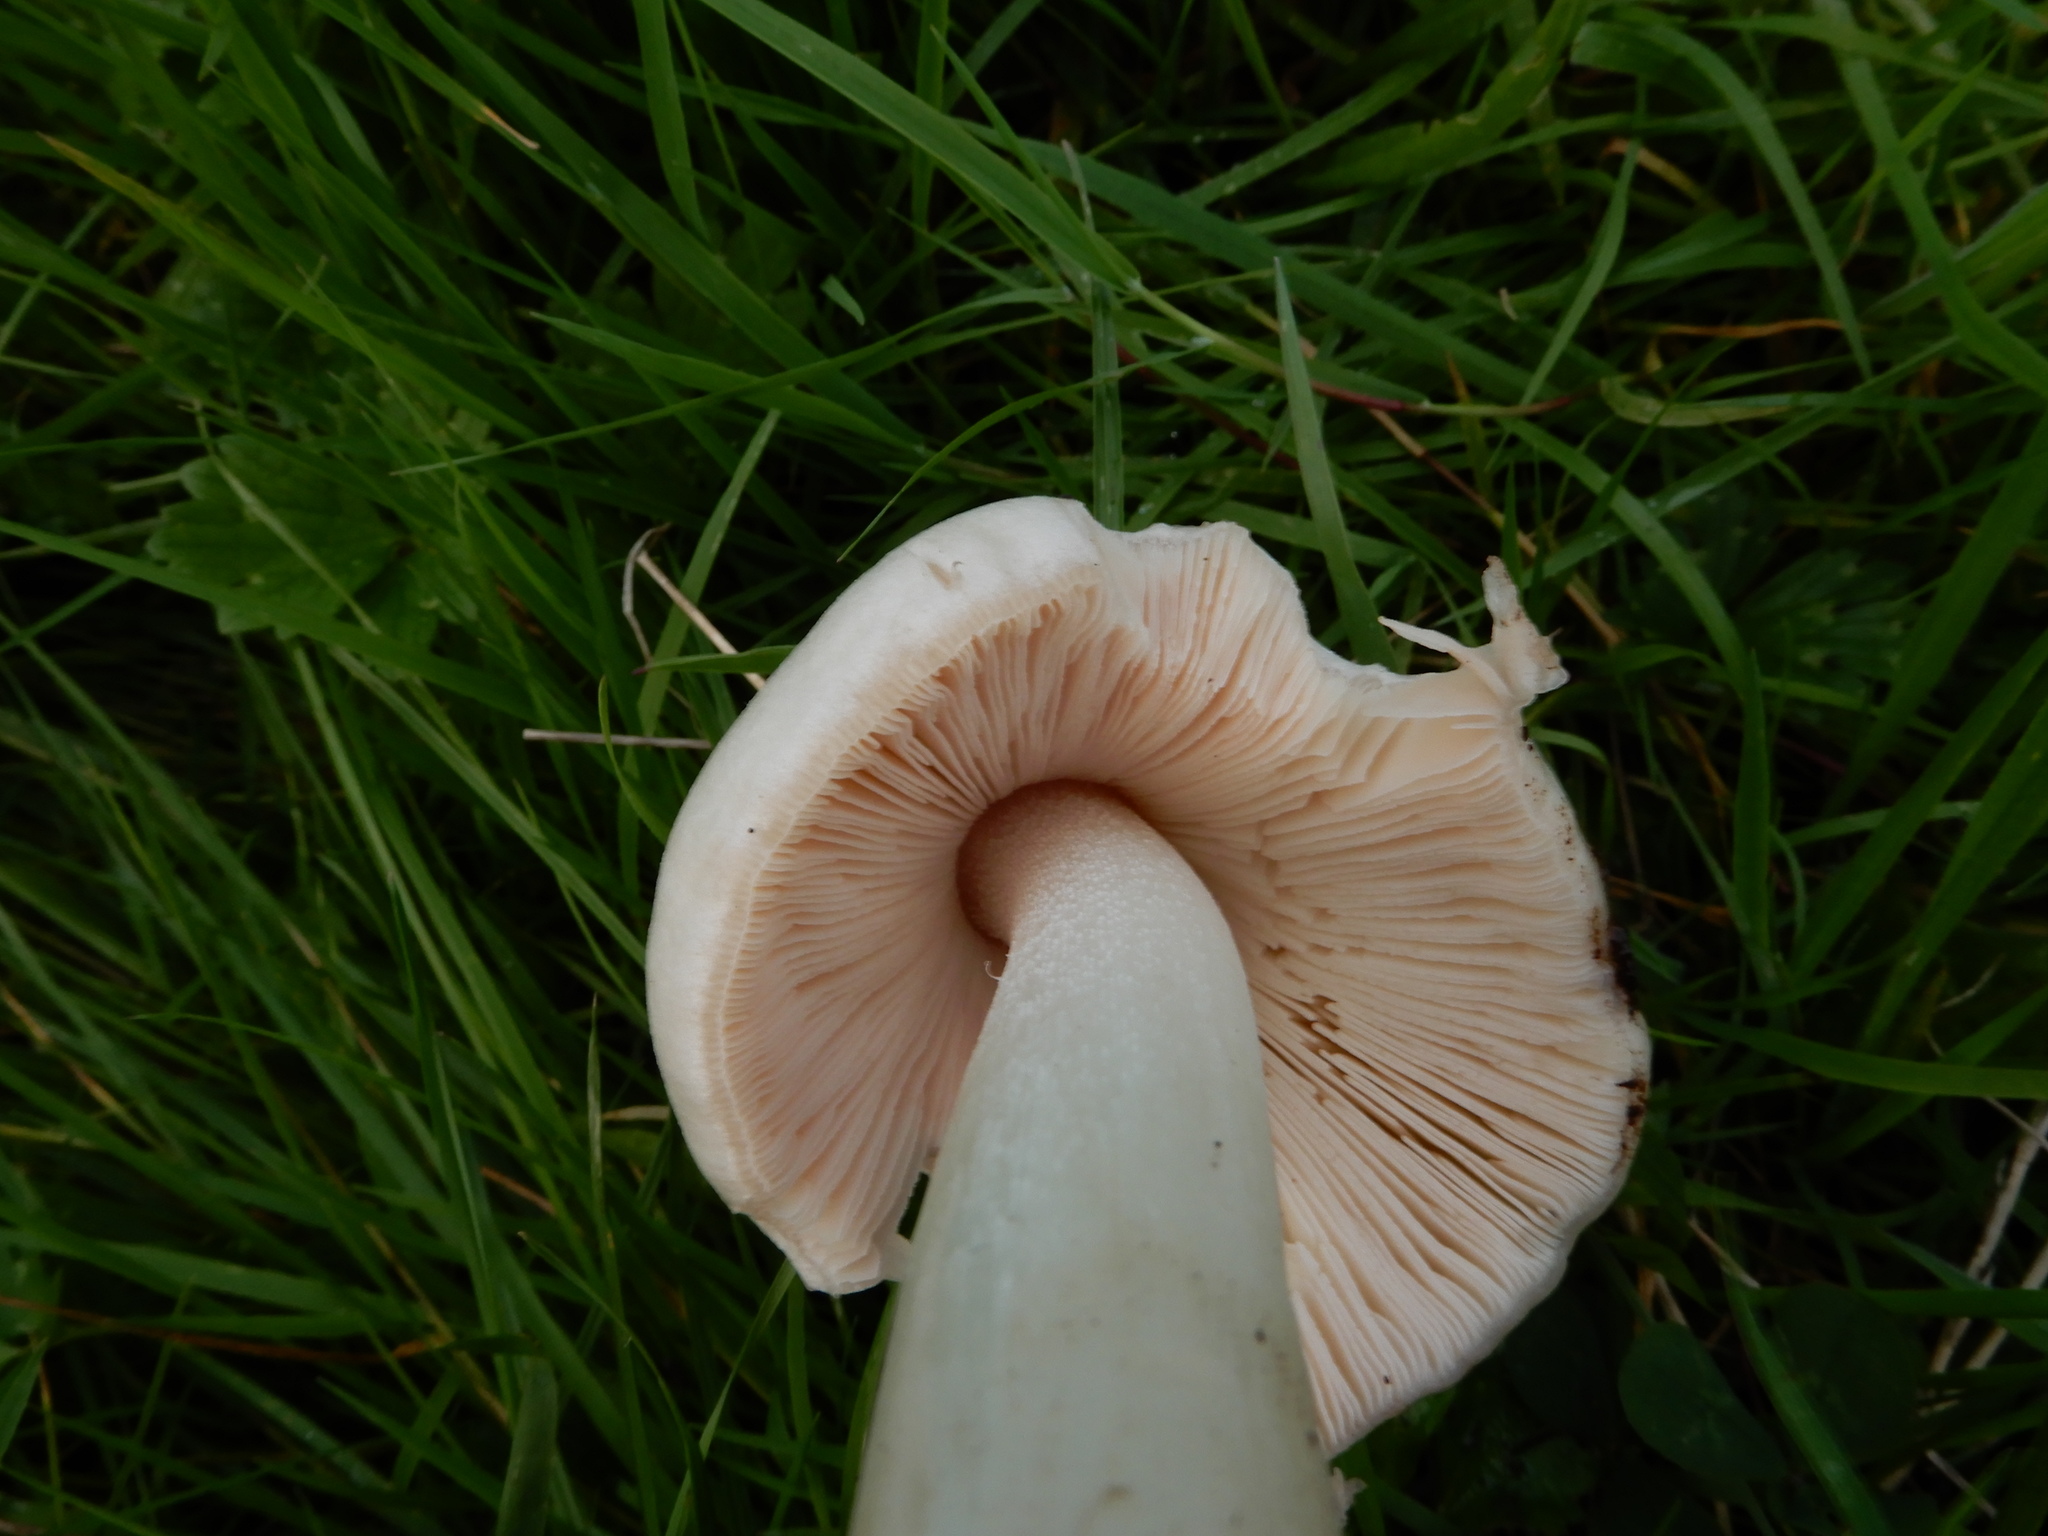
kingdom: Fungi
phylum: Basidiomycota
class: Agaricomycetes
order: Agaricales
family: Pluteaceae
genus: Volvopluteus
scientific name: Volvopluteus gloiocephalus
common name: Stubble rosegill
